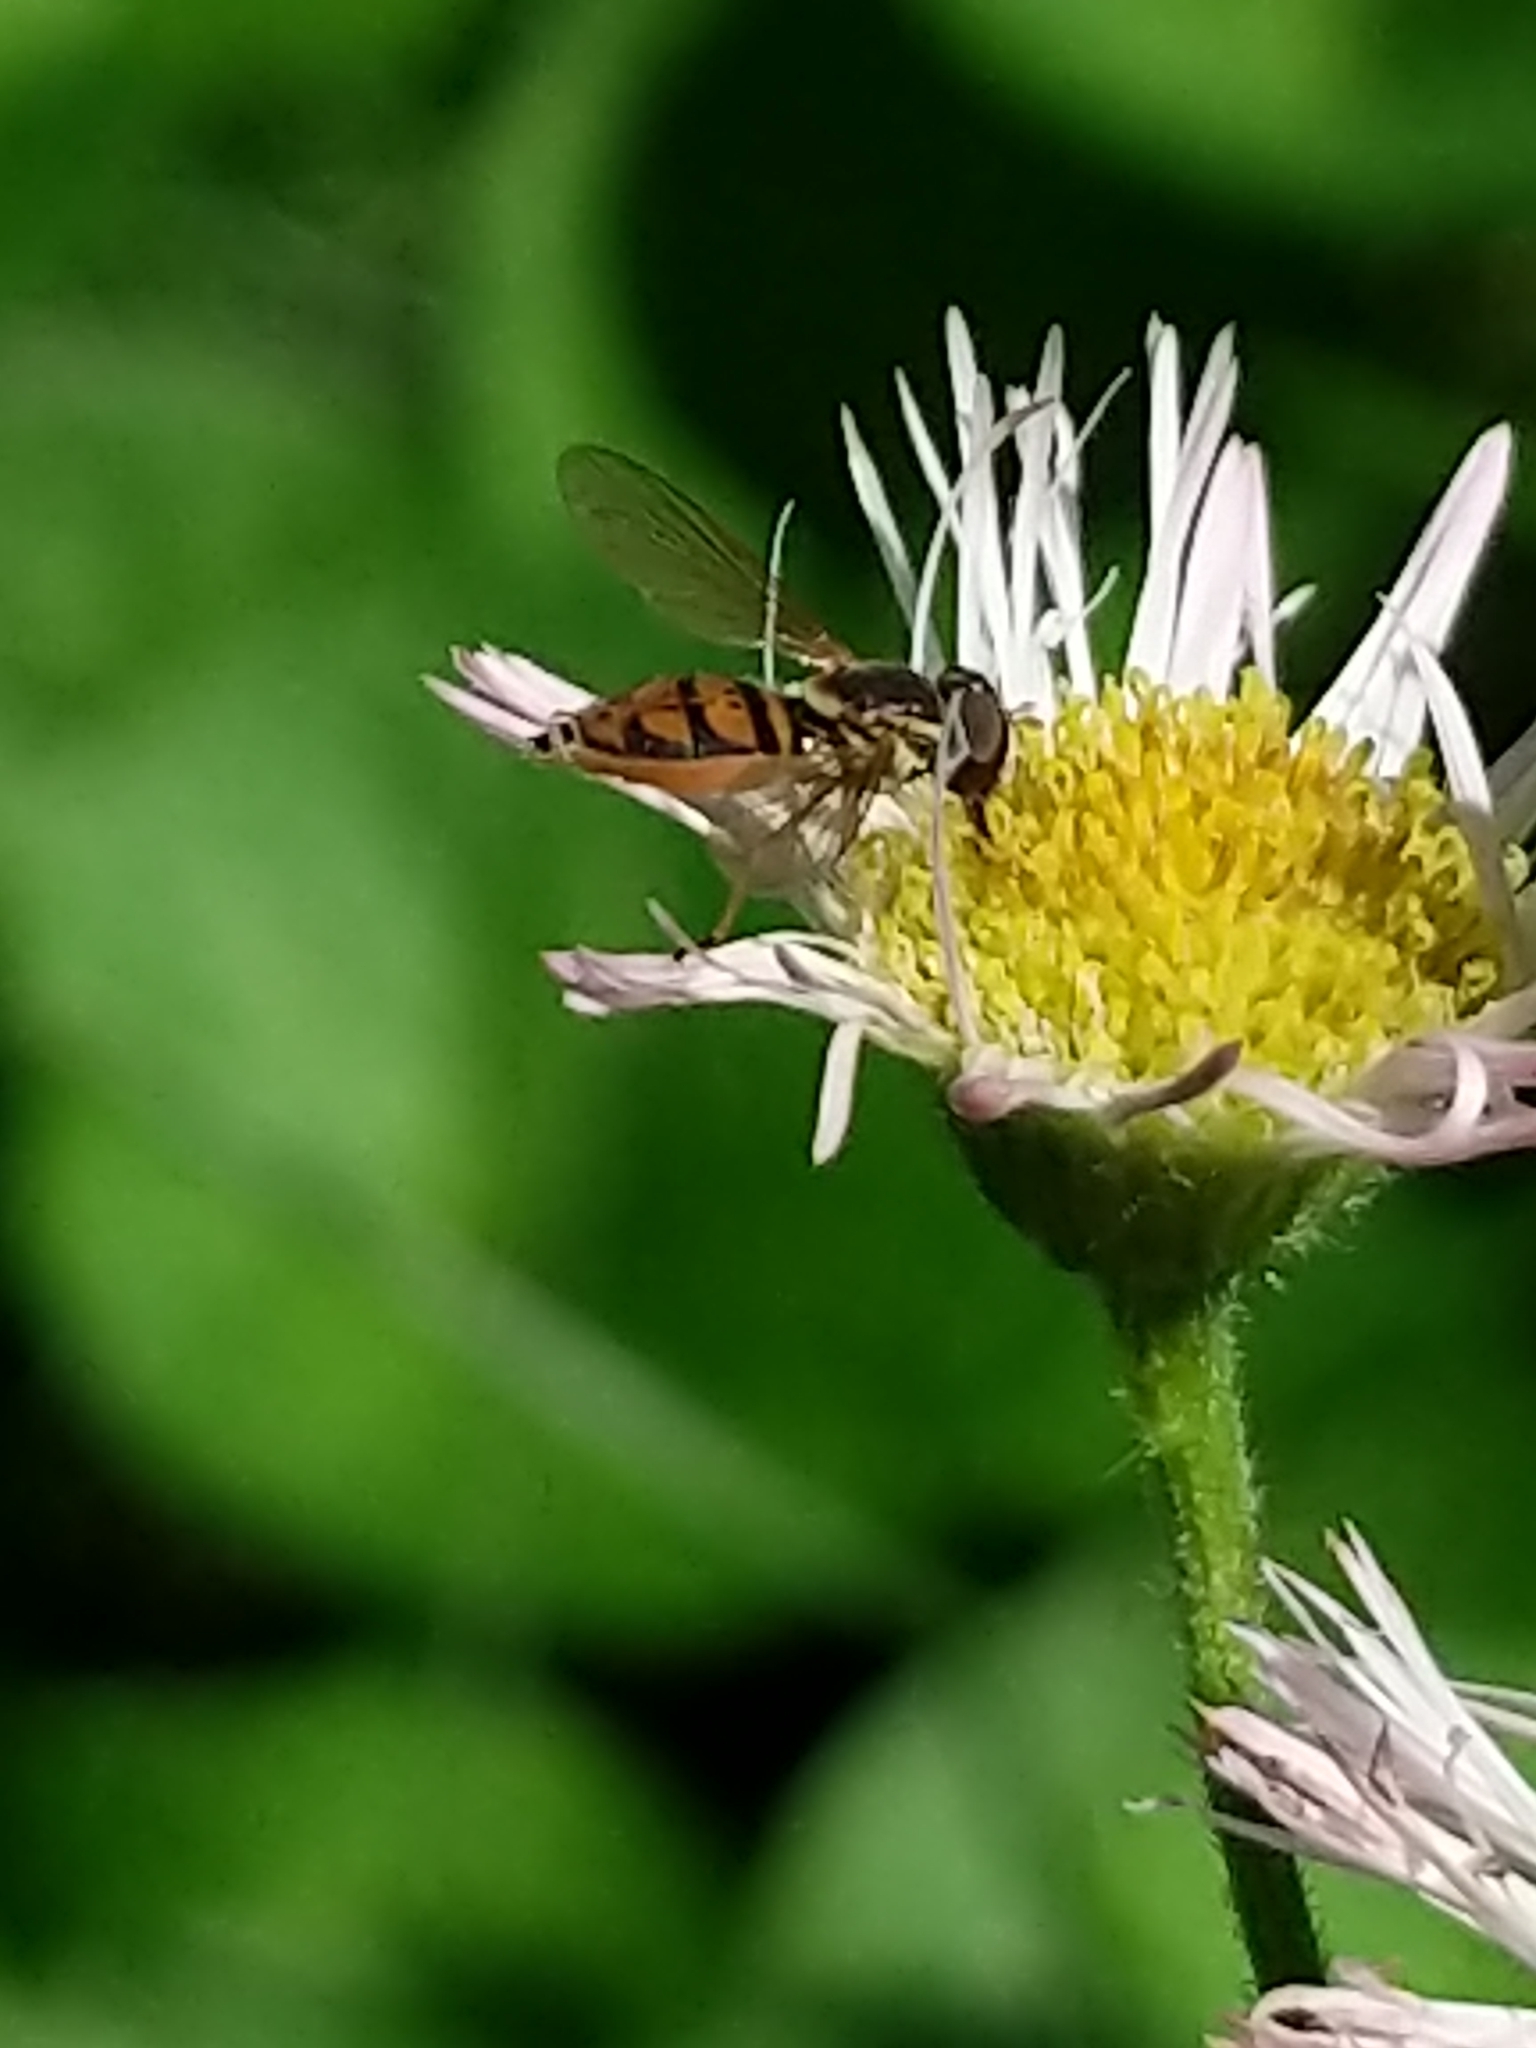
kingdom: Animalia
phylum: Arthropoda
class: Insecta
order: Diptera
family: Syrphidae
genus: Toxomerus
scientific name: Toxomerus marginatus
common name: Syrphid fly
